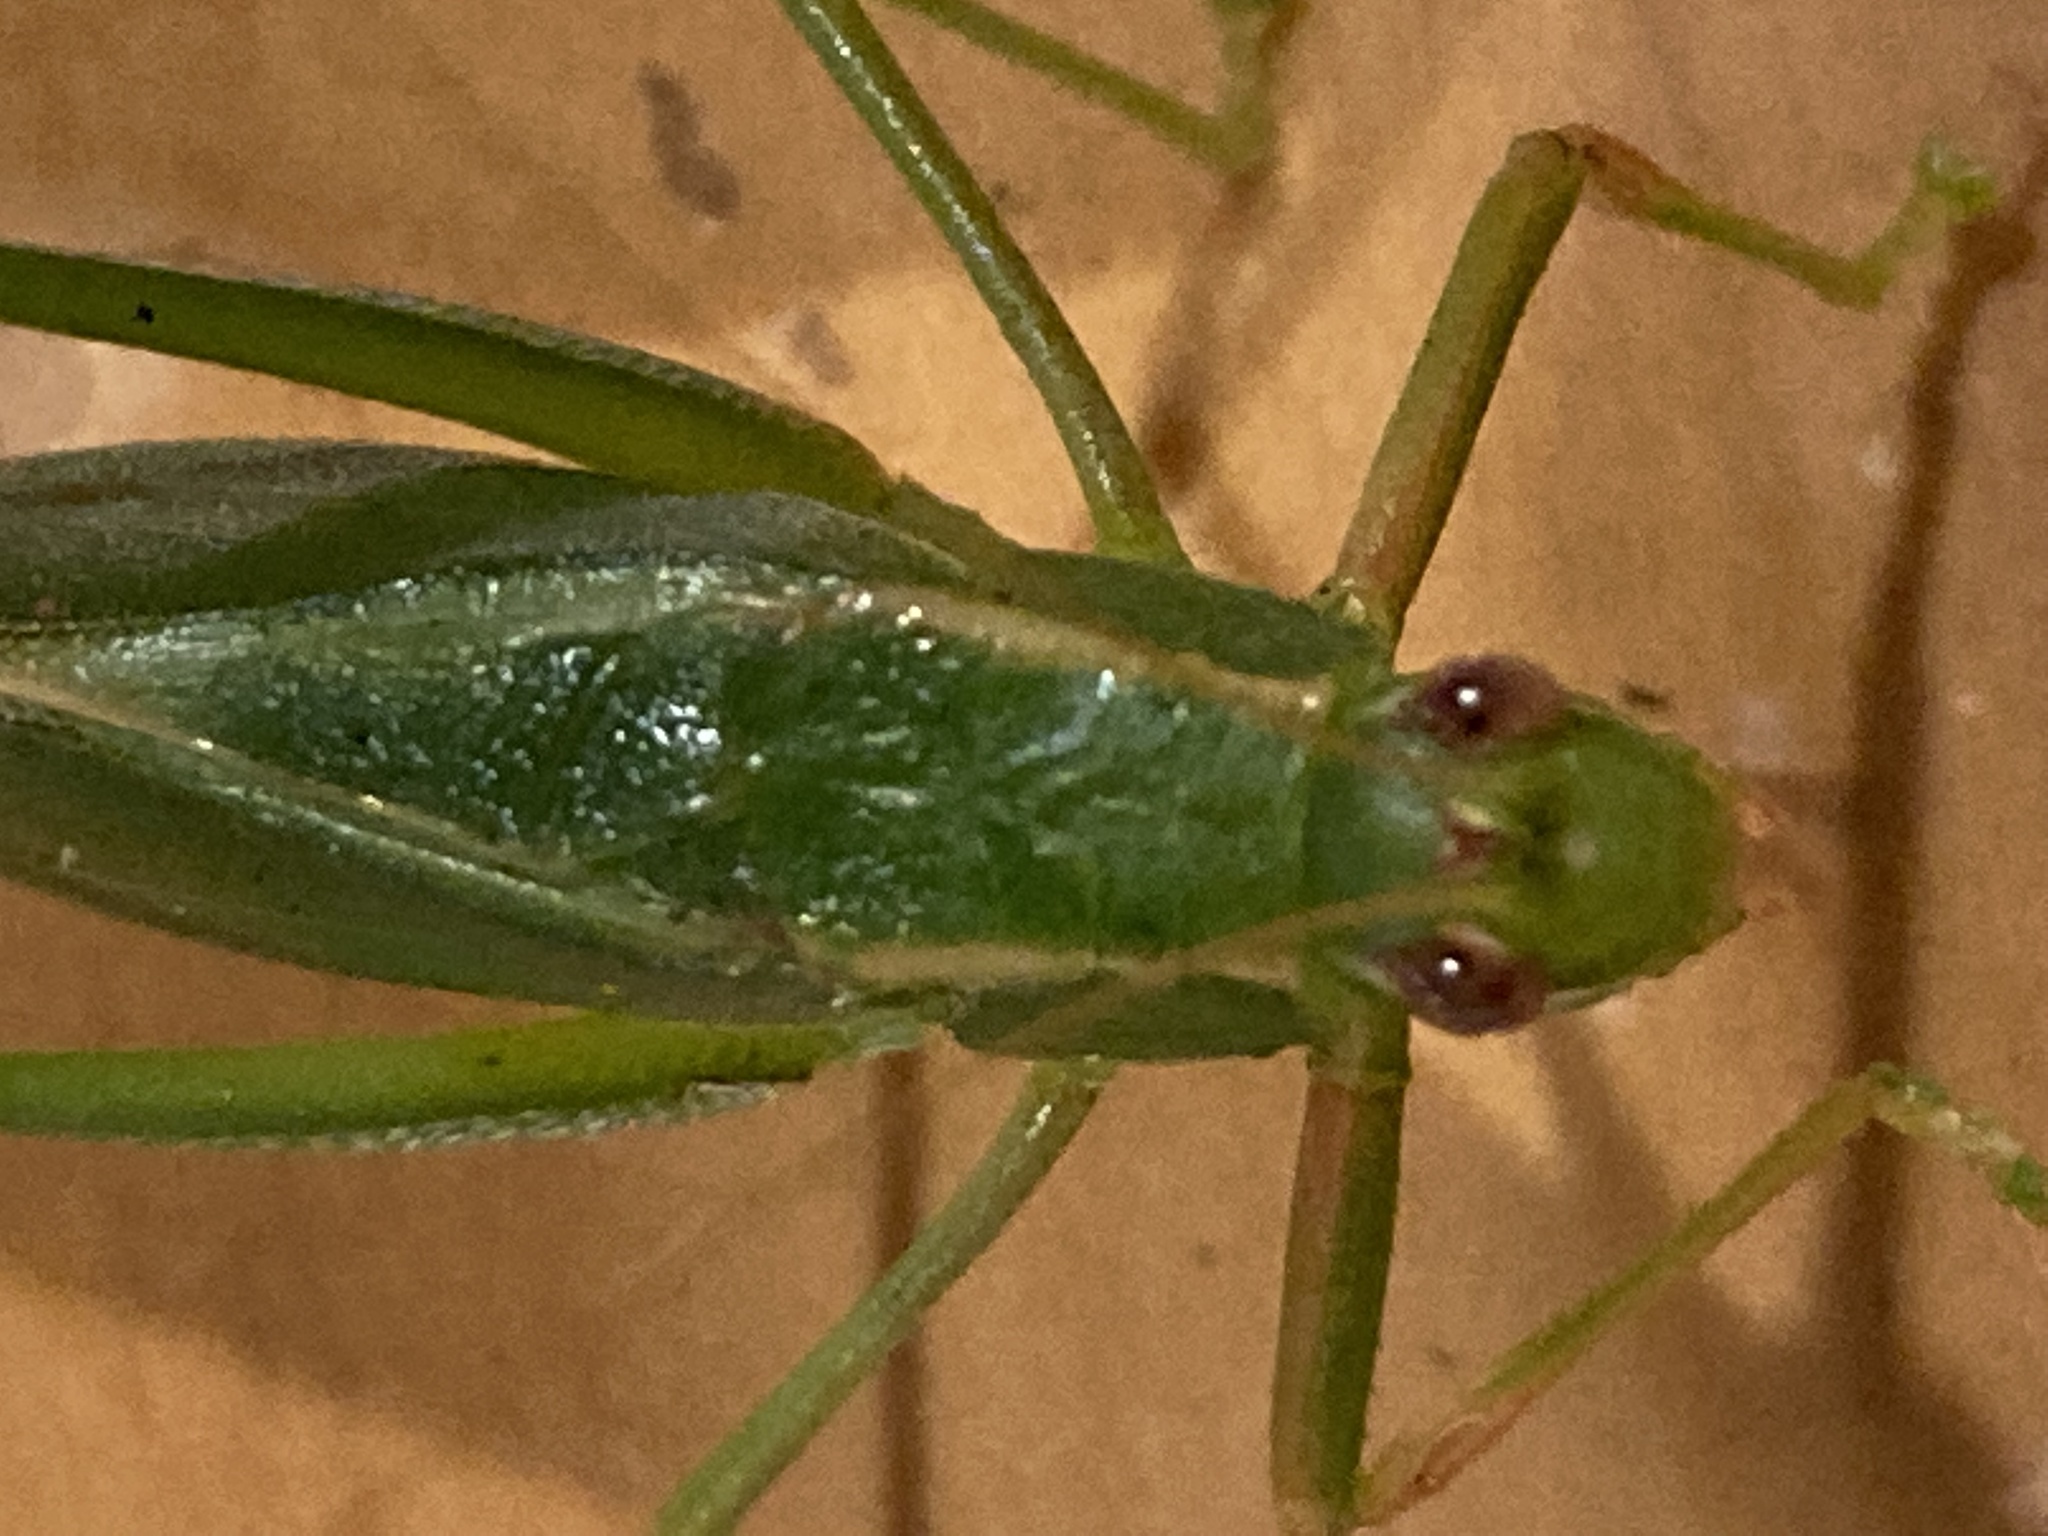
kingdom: Animalia
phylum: Arthropoda
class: Insecta
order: Orthoptera
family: Tettigoniidae
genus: Caedicia
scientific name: Caedicia simplex
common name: Common garden katydid
